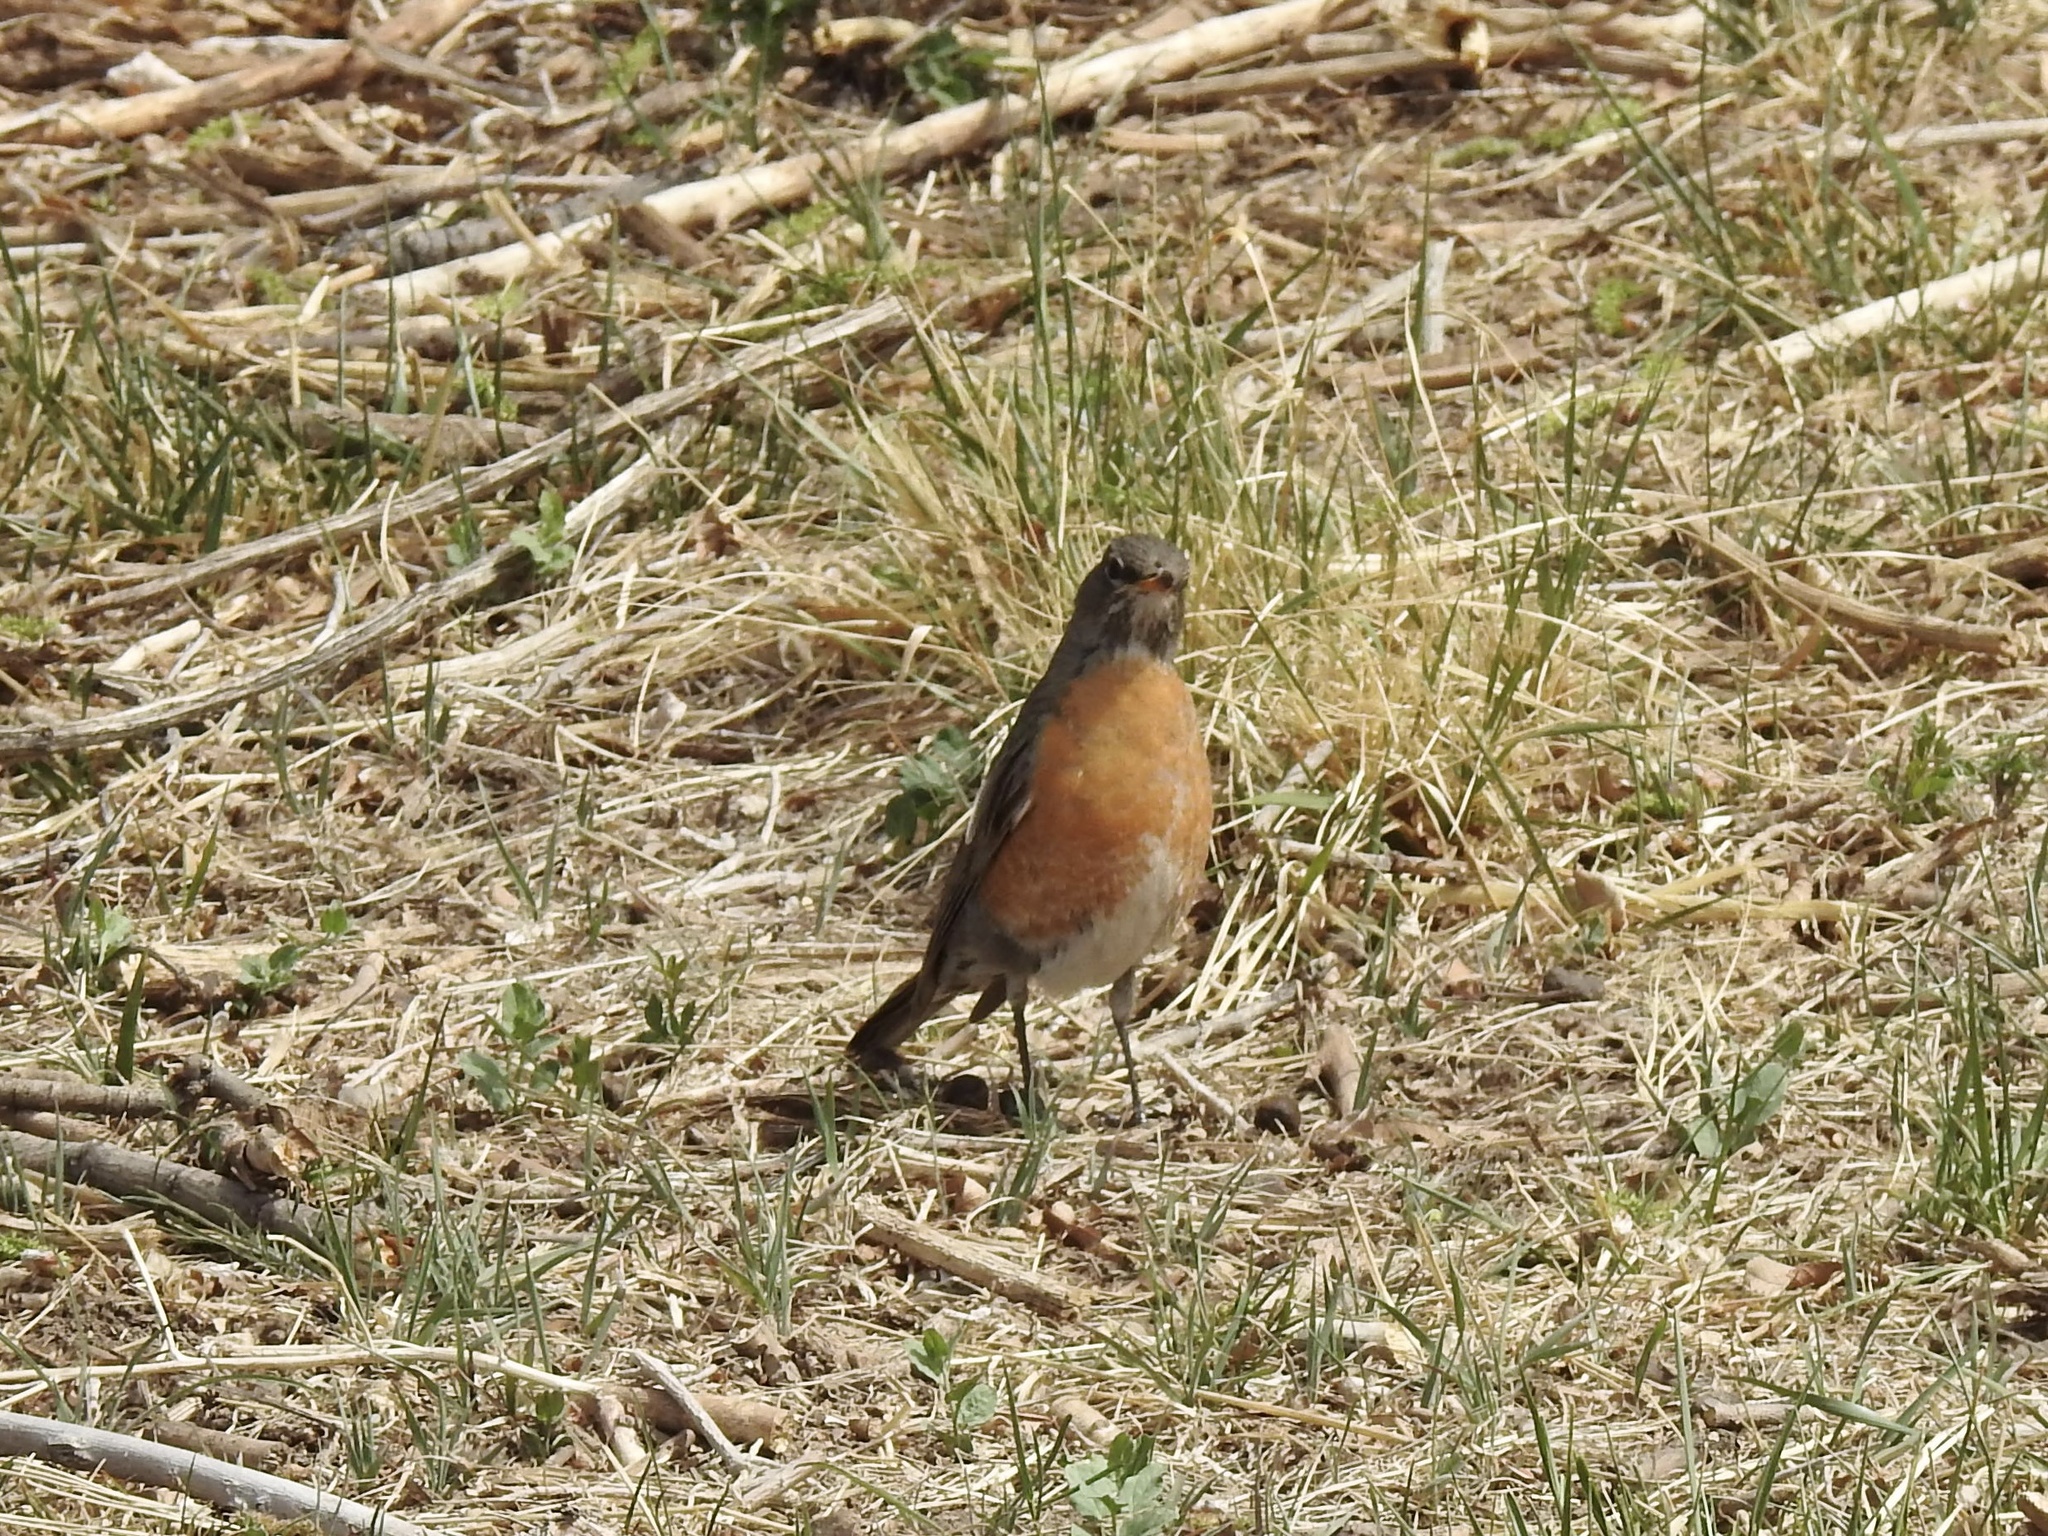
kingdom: Animalia
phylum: Chordata
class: Aves
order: Passeriformes
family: Turdidae
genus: Turdus
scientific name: Turdus migratorius
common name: American robin
